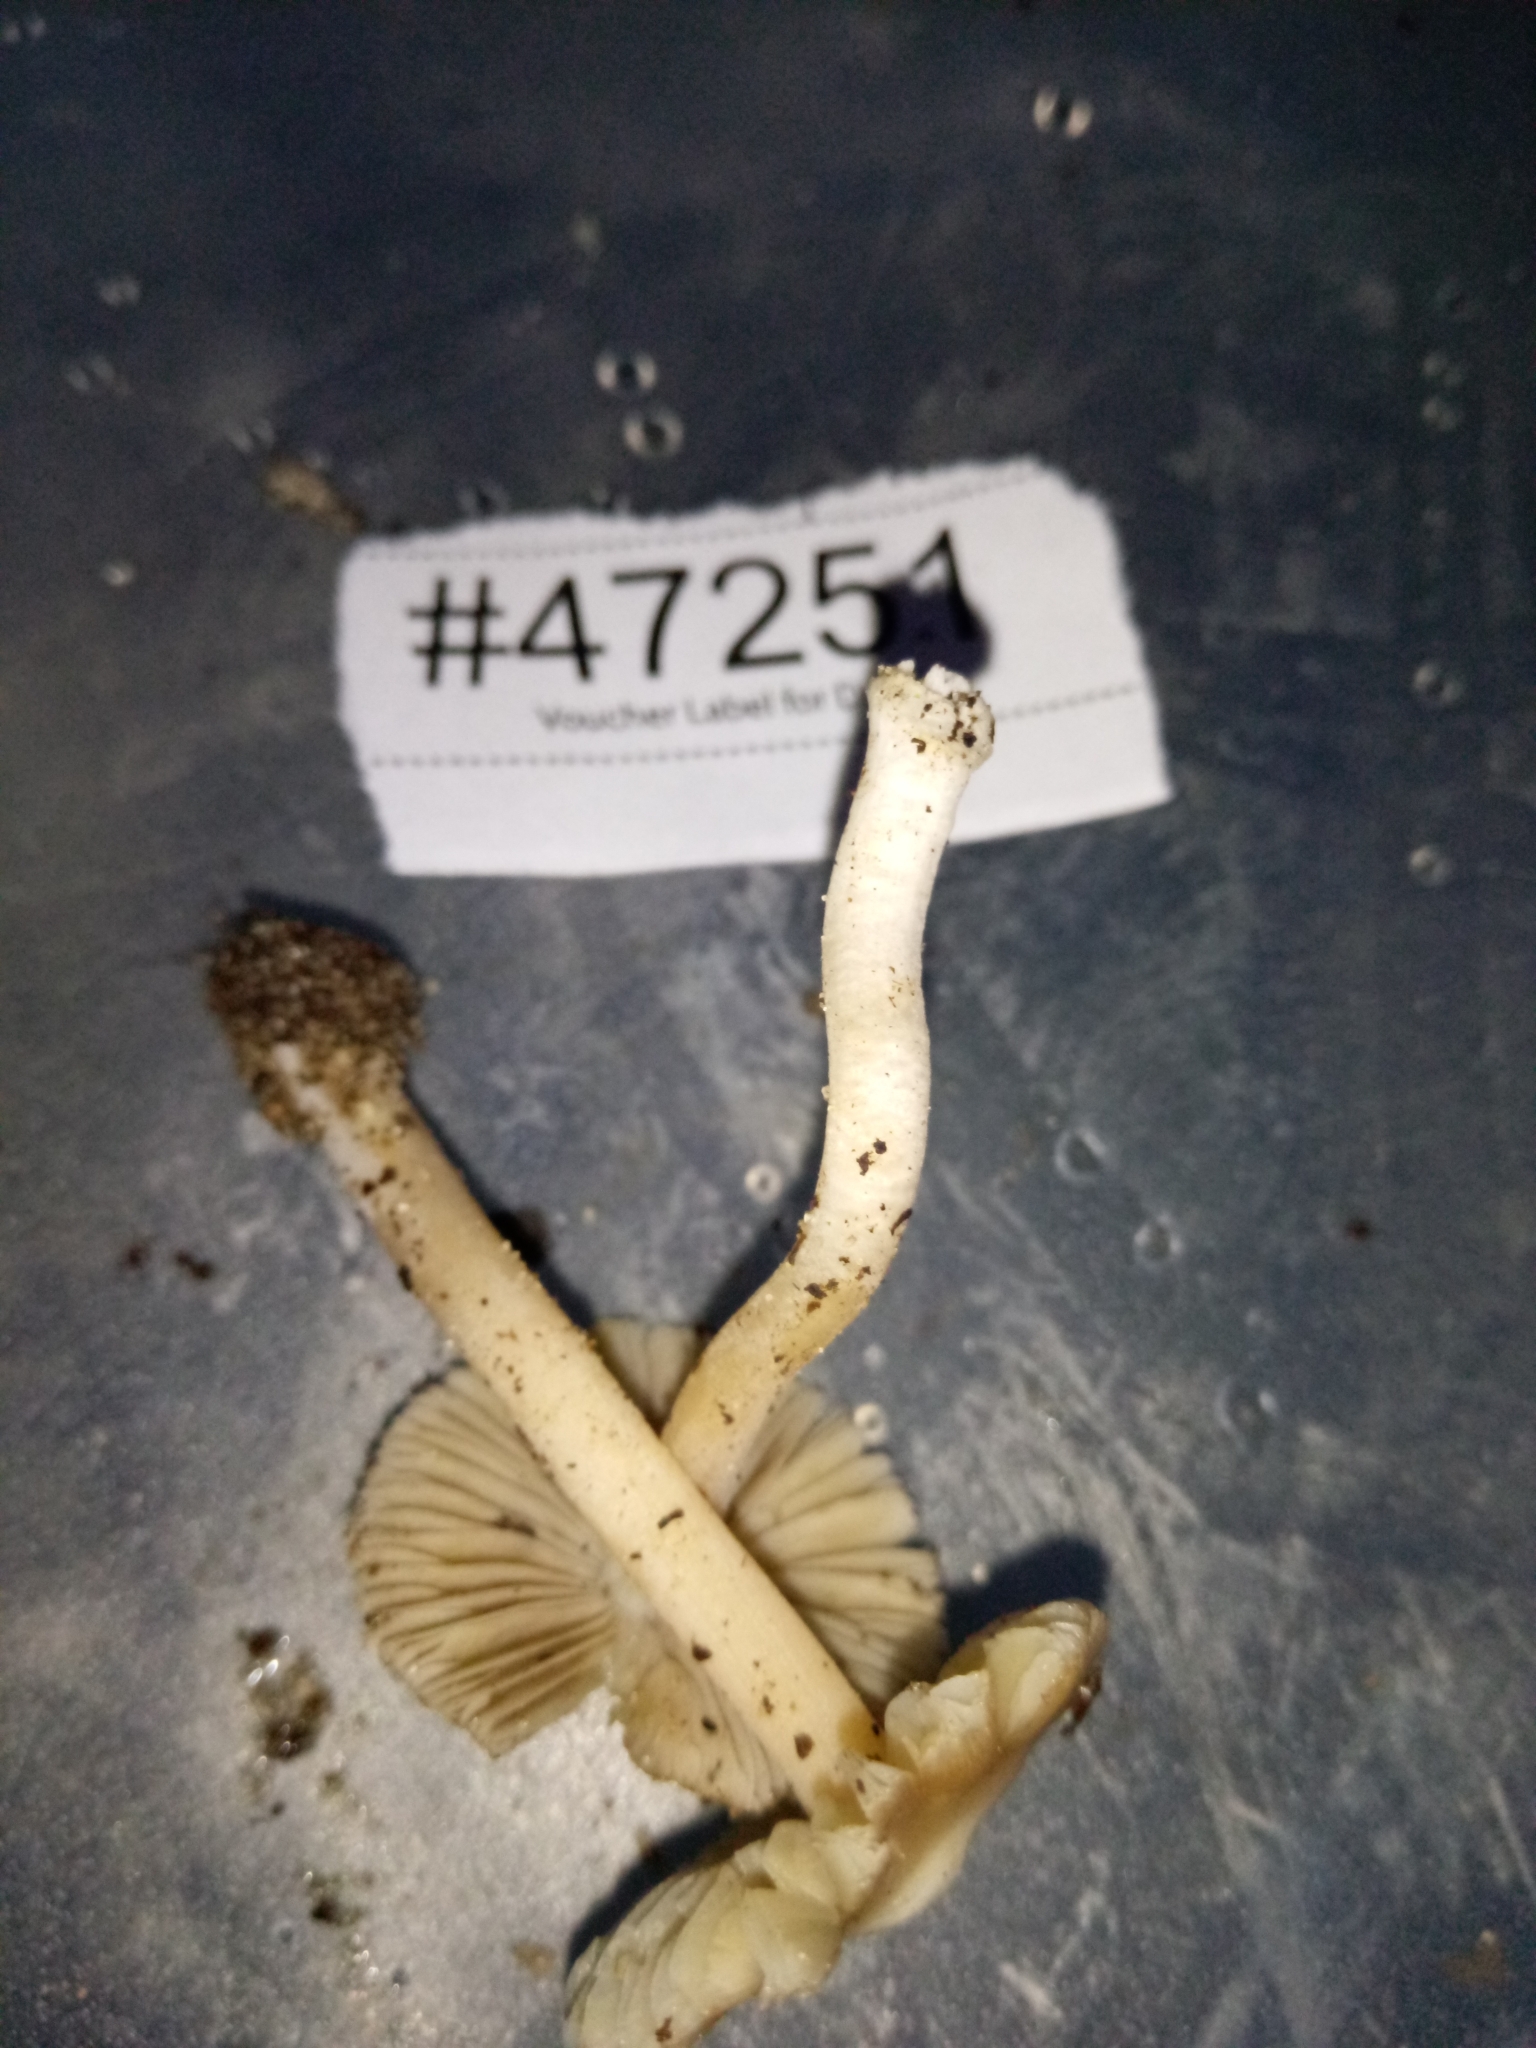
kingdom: Fungi
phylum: Basidiomycota
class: Agaricomycetes
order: Agaricales
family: Inocybaceae
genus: Inocybe
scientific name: Inocybe velicopia
